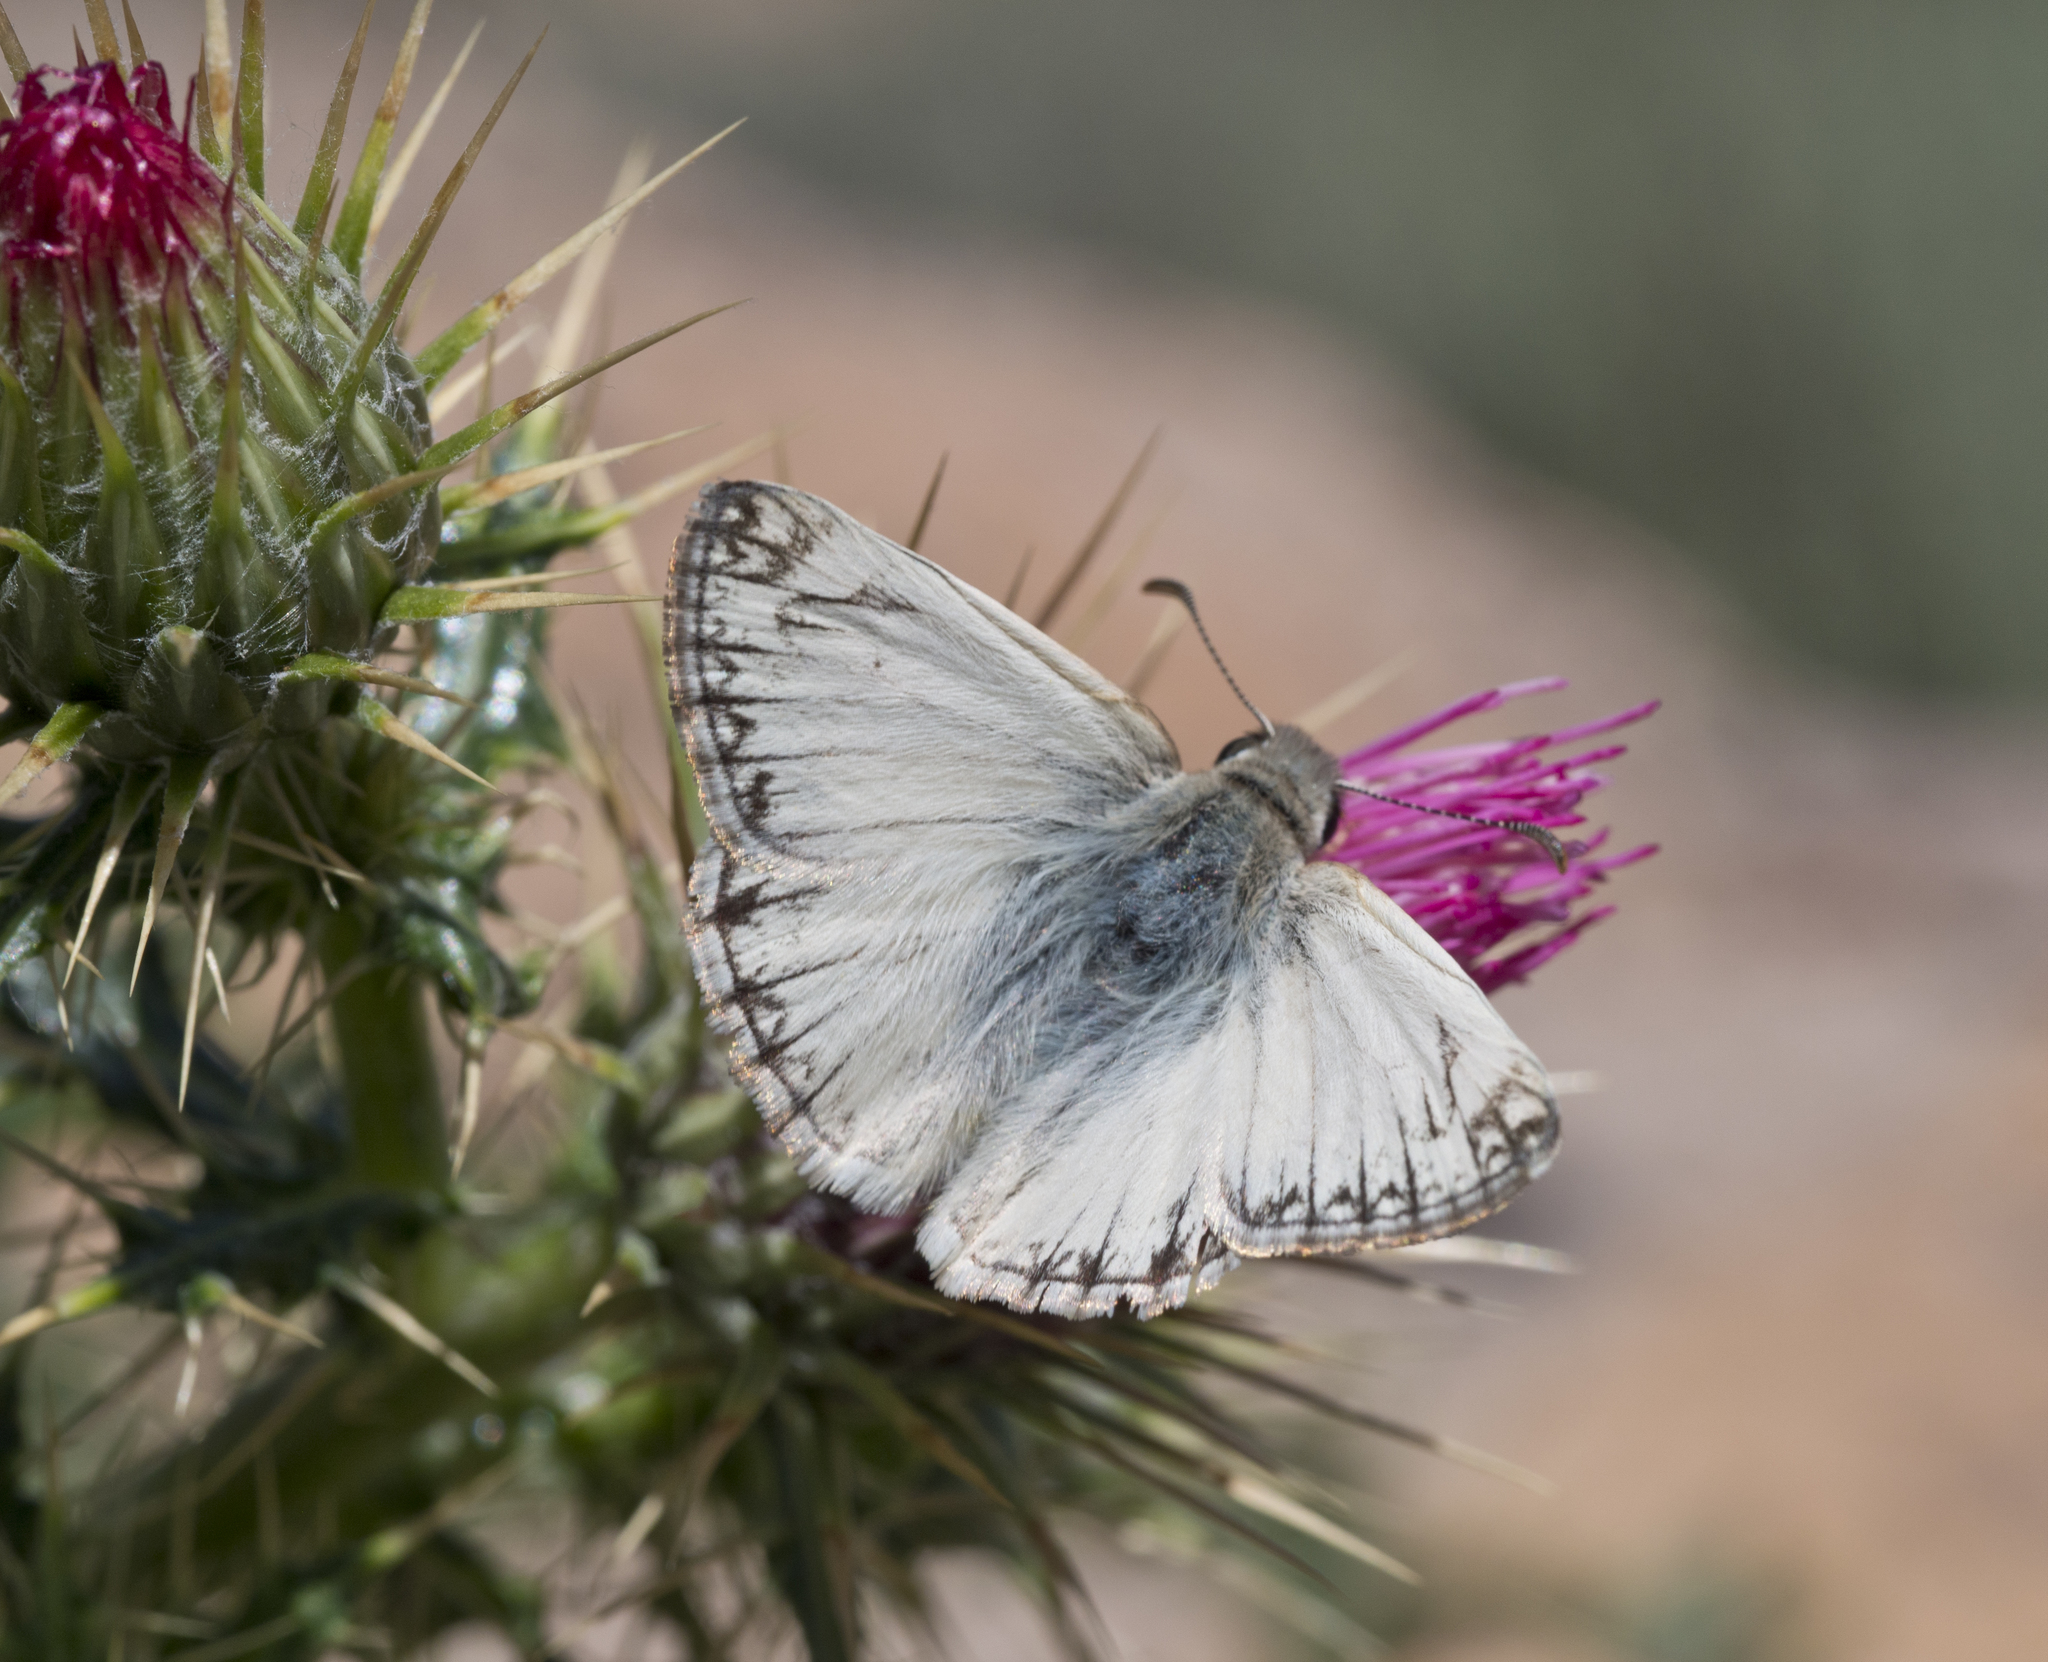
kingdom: Animalia
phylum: Arthropoda
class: Insecta
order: Lepidoptera
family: Hesperiidae
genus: Heliopetes
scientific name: Heliopetes ericetorum
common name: Northern white-skipper
